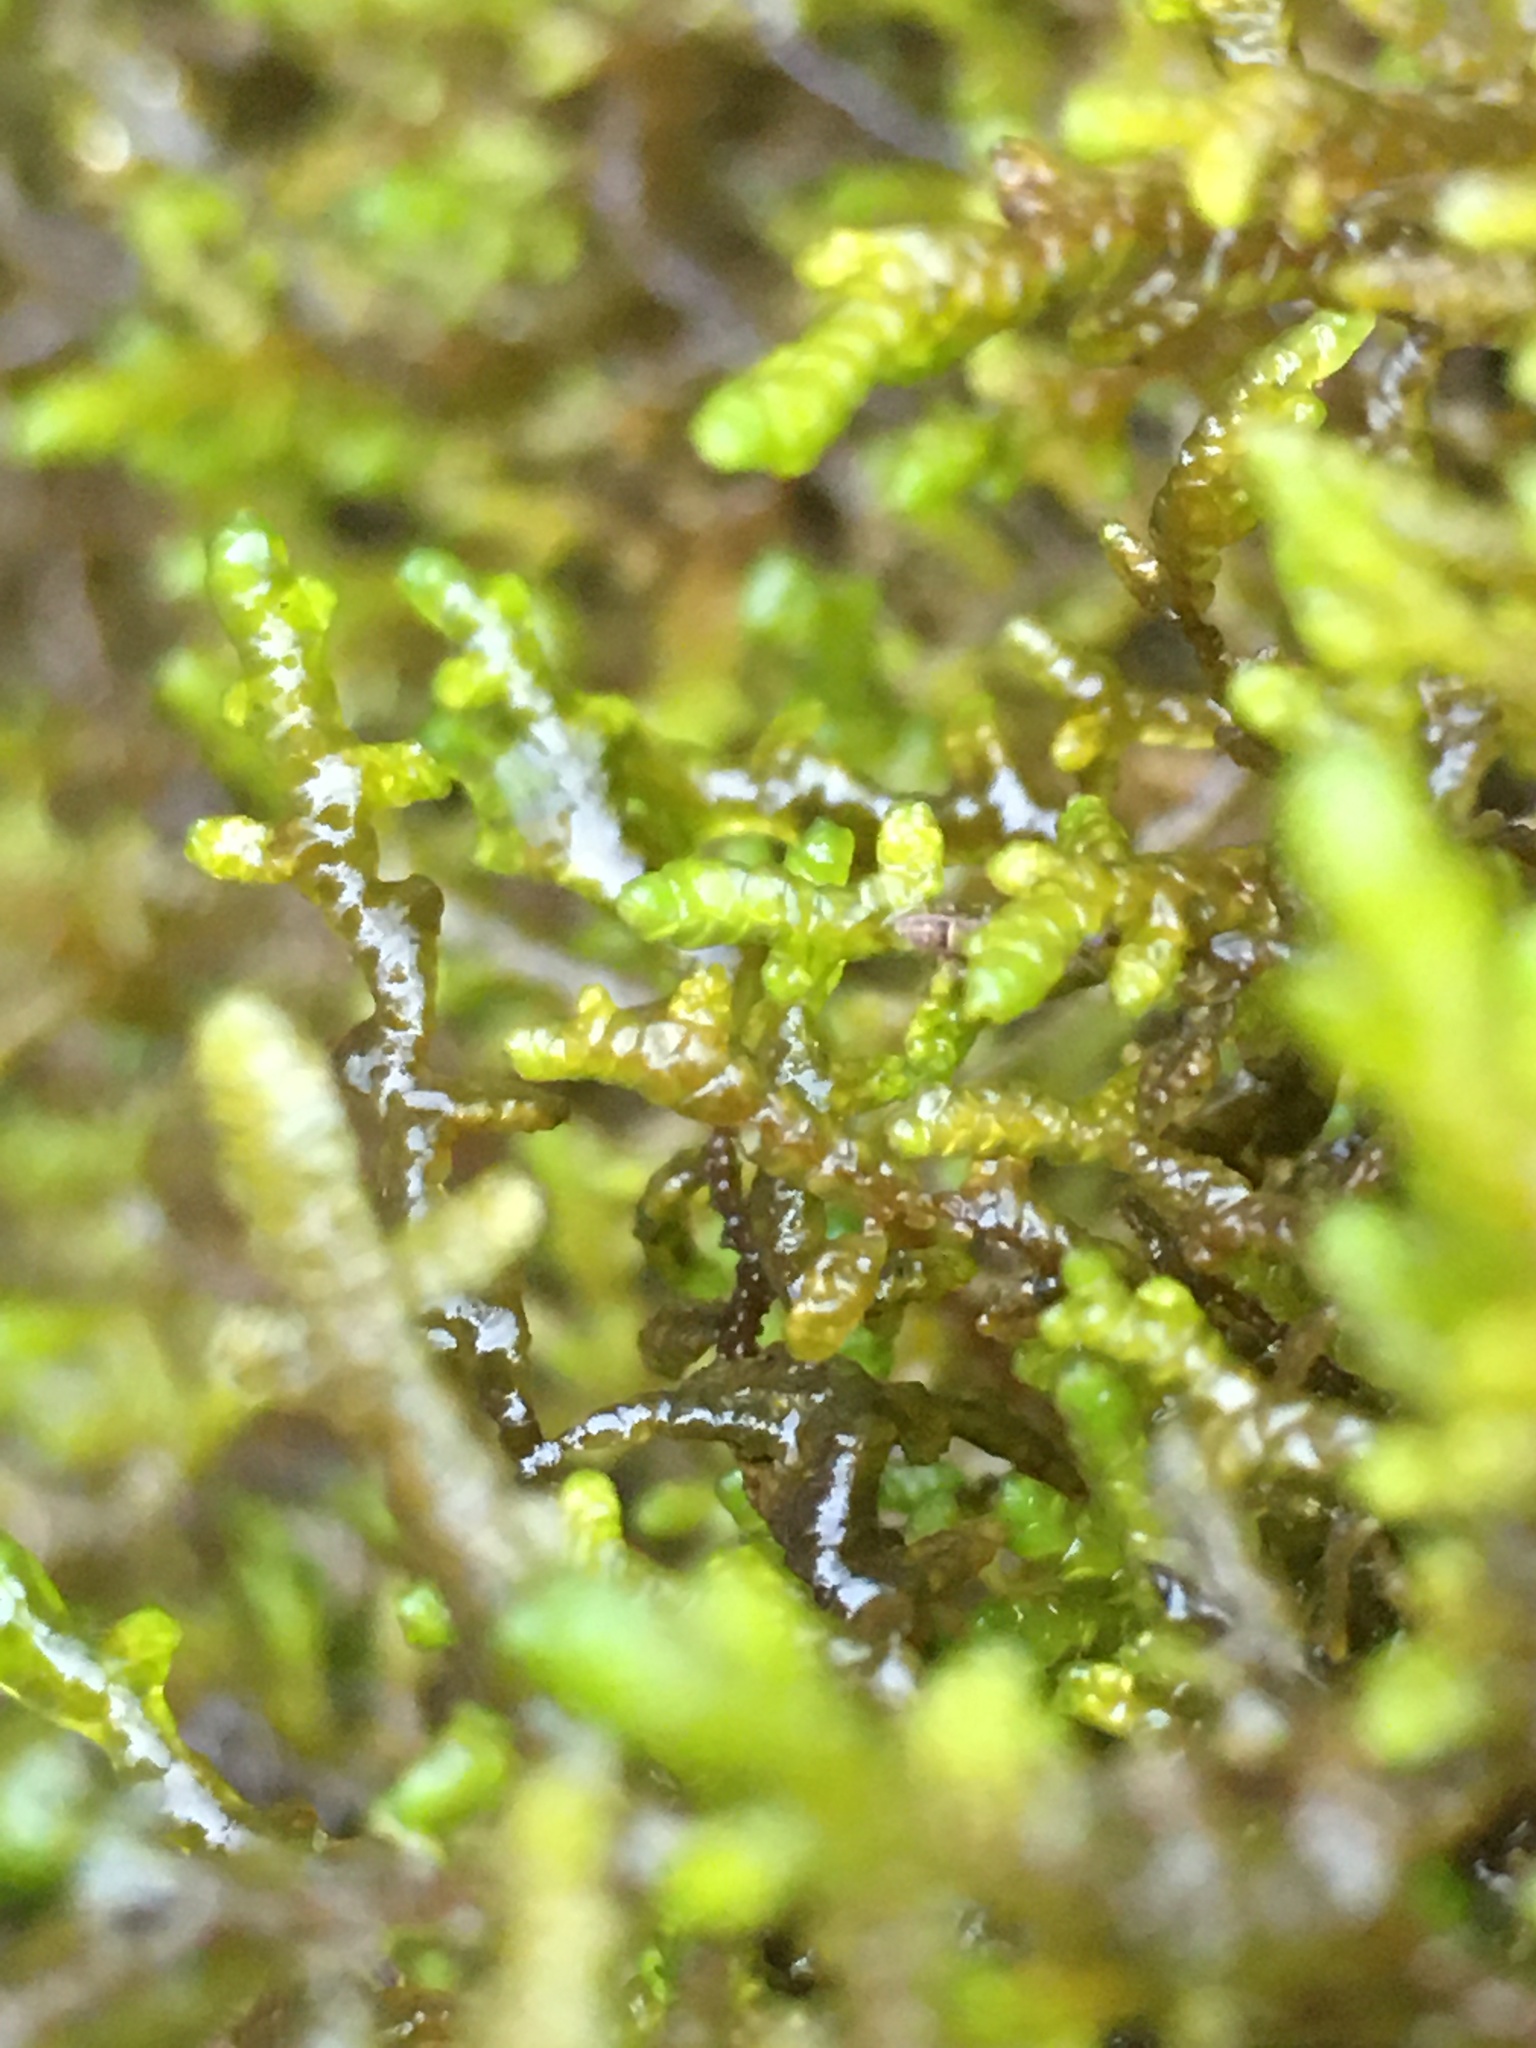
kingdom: Plantae
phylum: Marchantiophyta
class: Jungermanniopsida
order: Porellales
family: Porellaceae
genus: Porella
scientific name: Porella navicularis
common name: Tree ruffle liverwort
